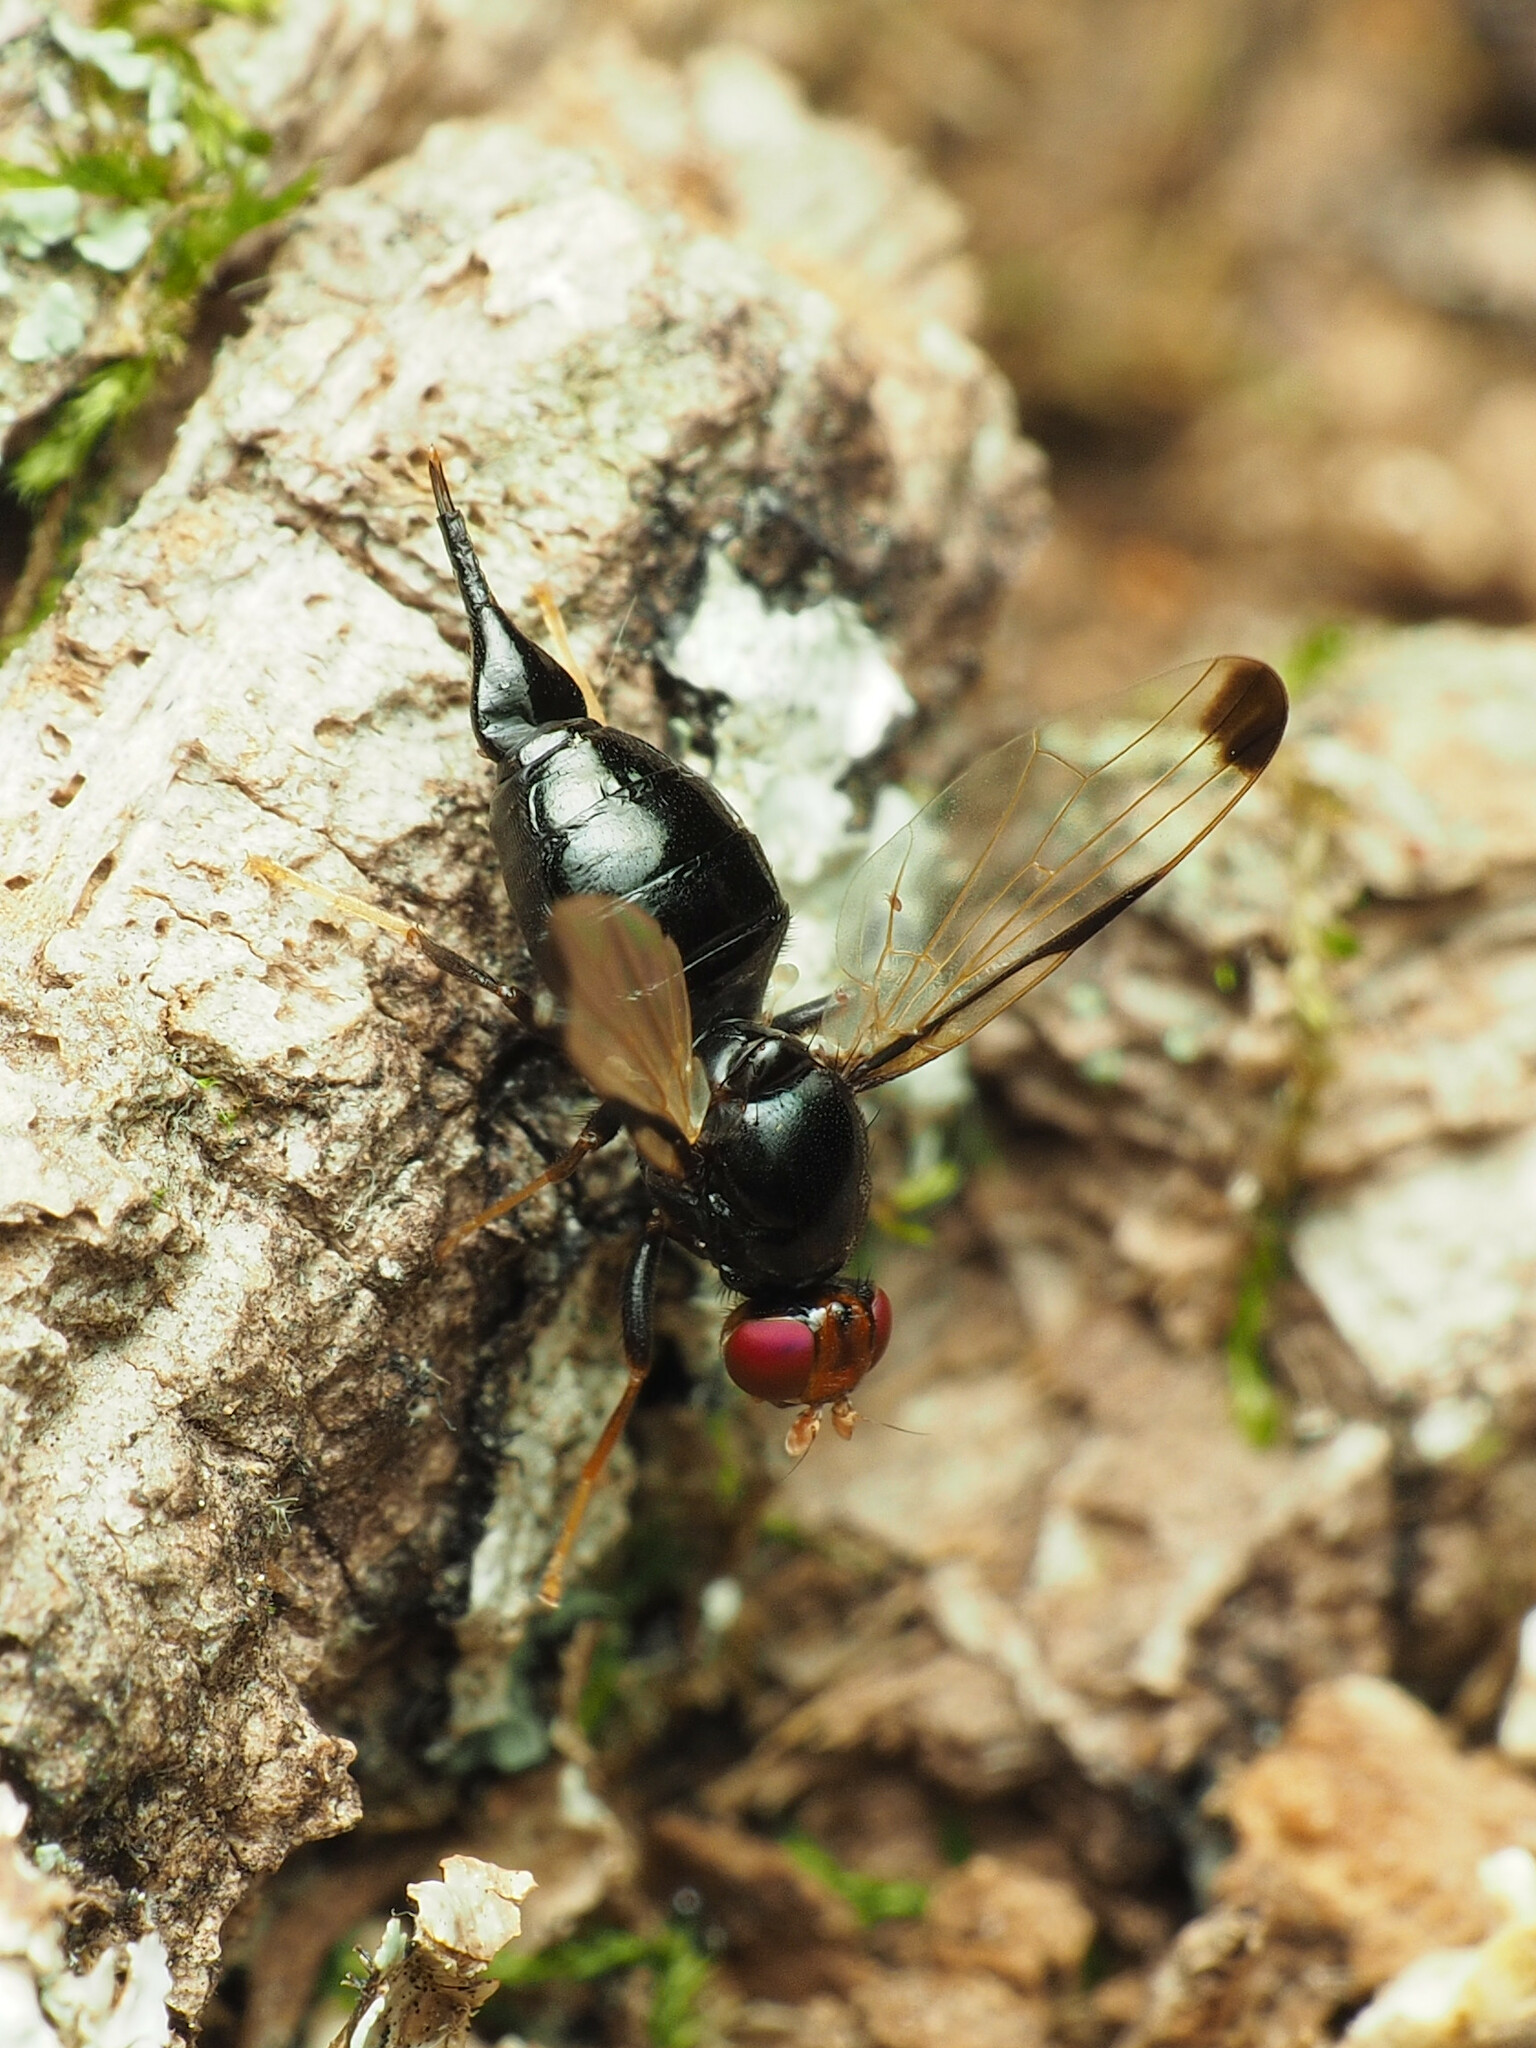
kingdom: Animalia
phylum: Arthropoda
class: Insecta
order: Diptera
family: Ulidiidae
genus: Pseudoseioptera
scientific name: Pseudoseioptera albipes
